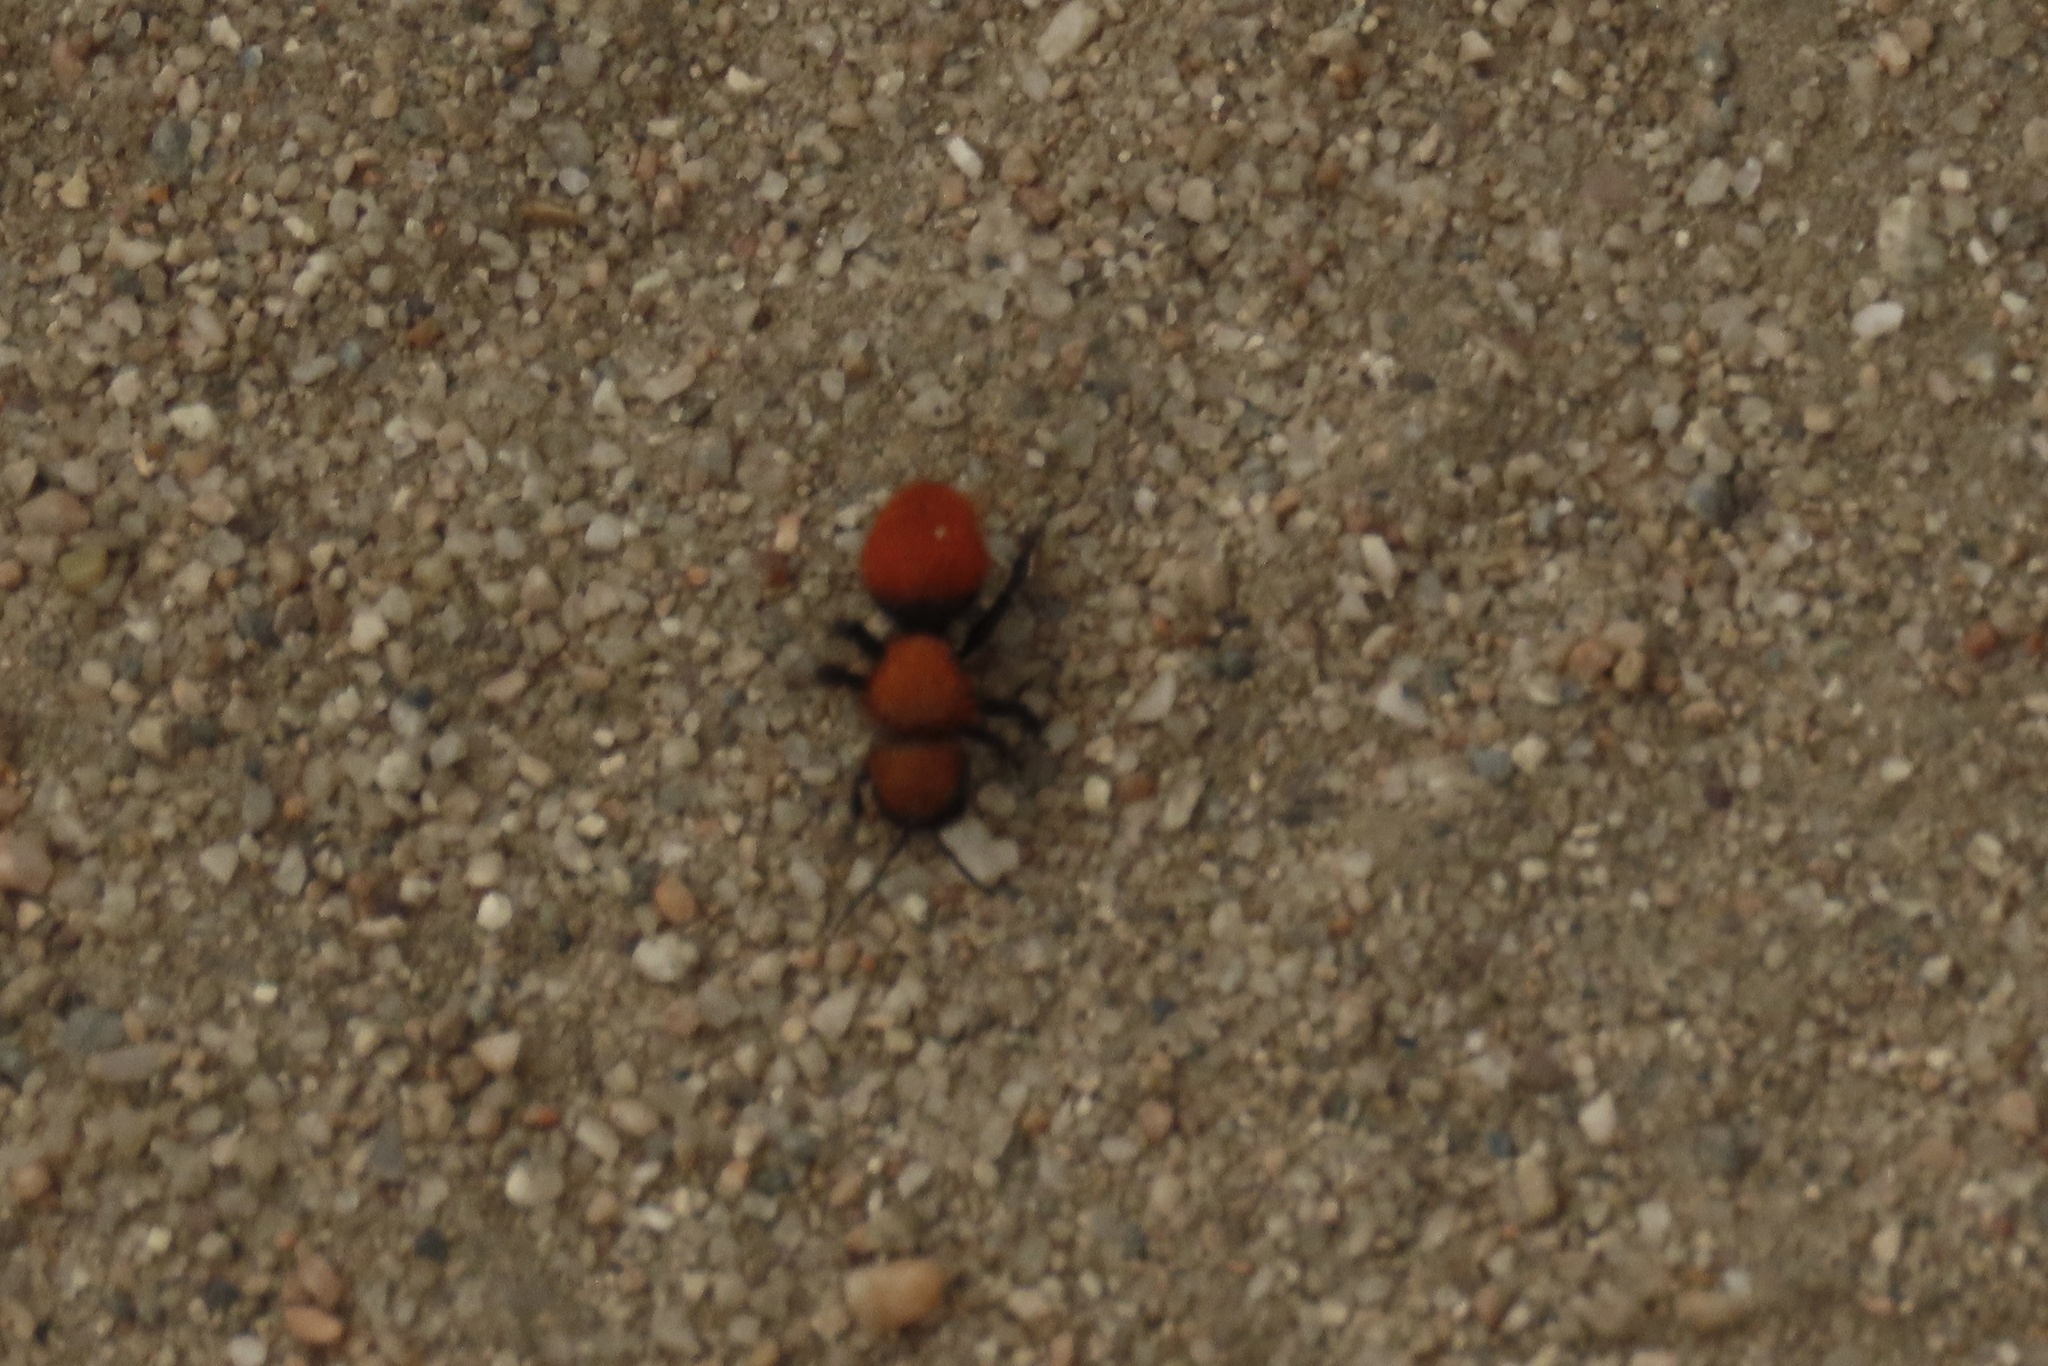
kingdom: Animalia
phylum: Arthropoda
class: Insecta
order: Hymenoptera
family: Mutillidae
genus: Dasymutilla
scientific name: Dasymutilla
